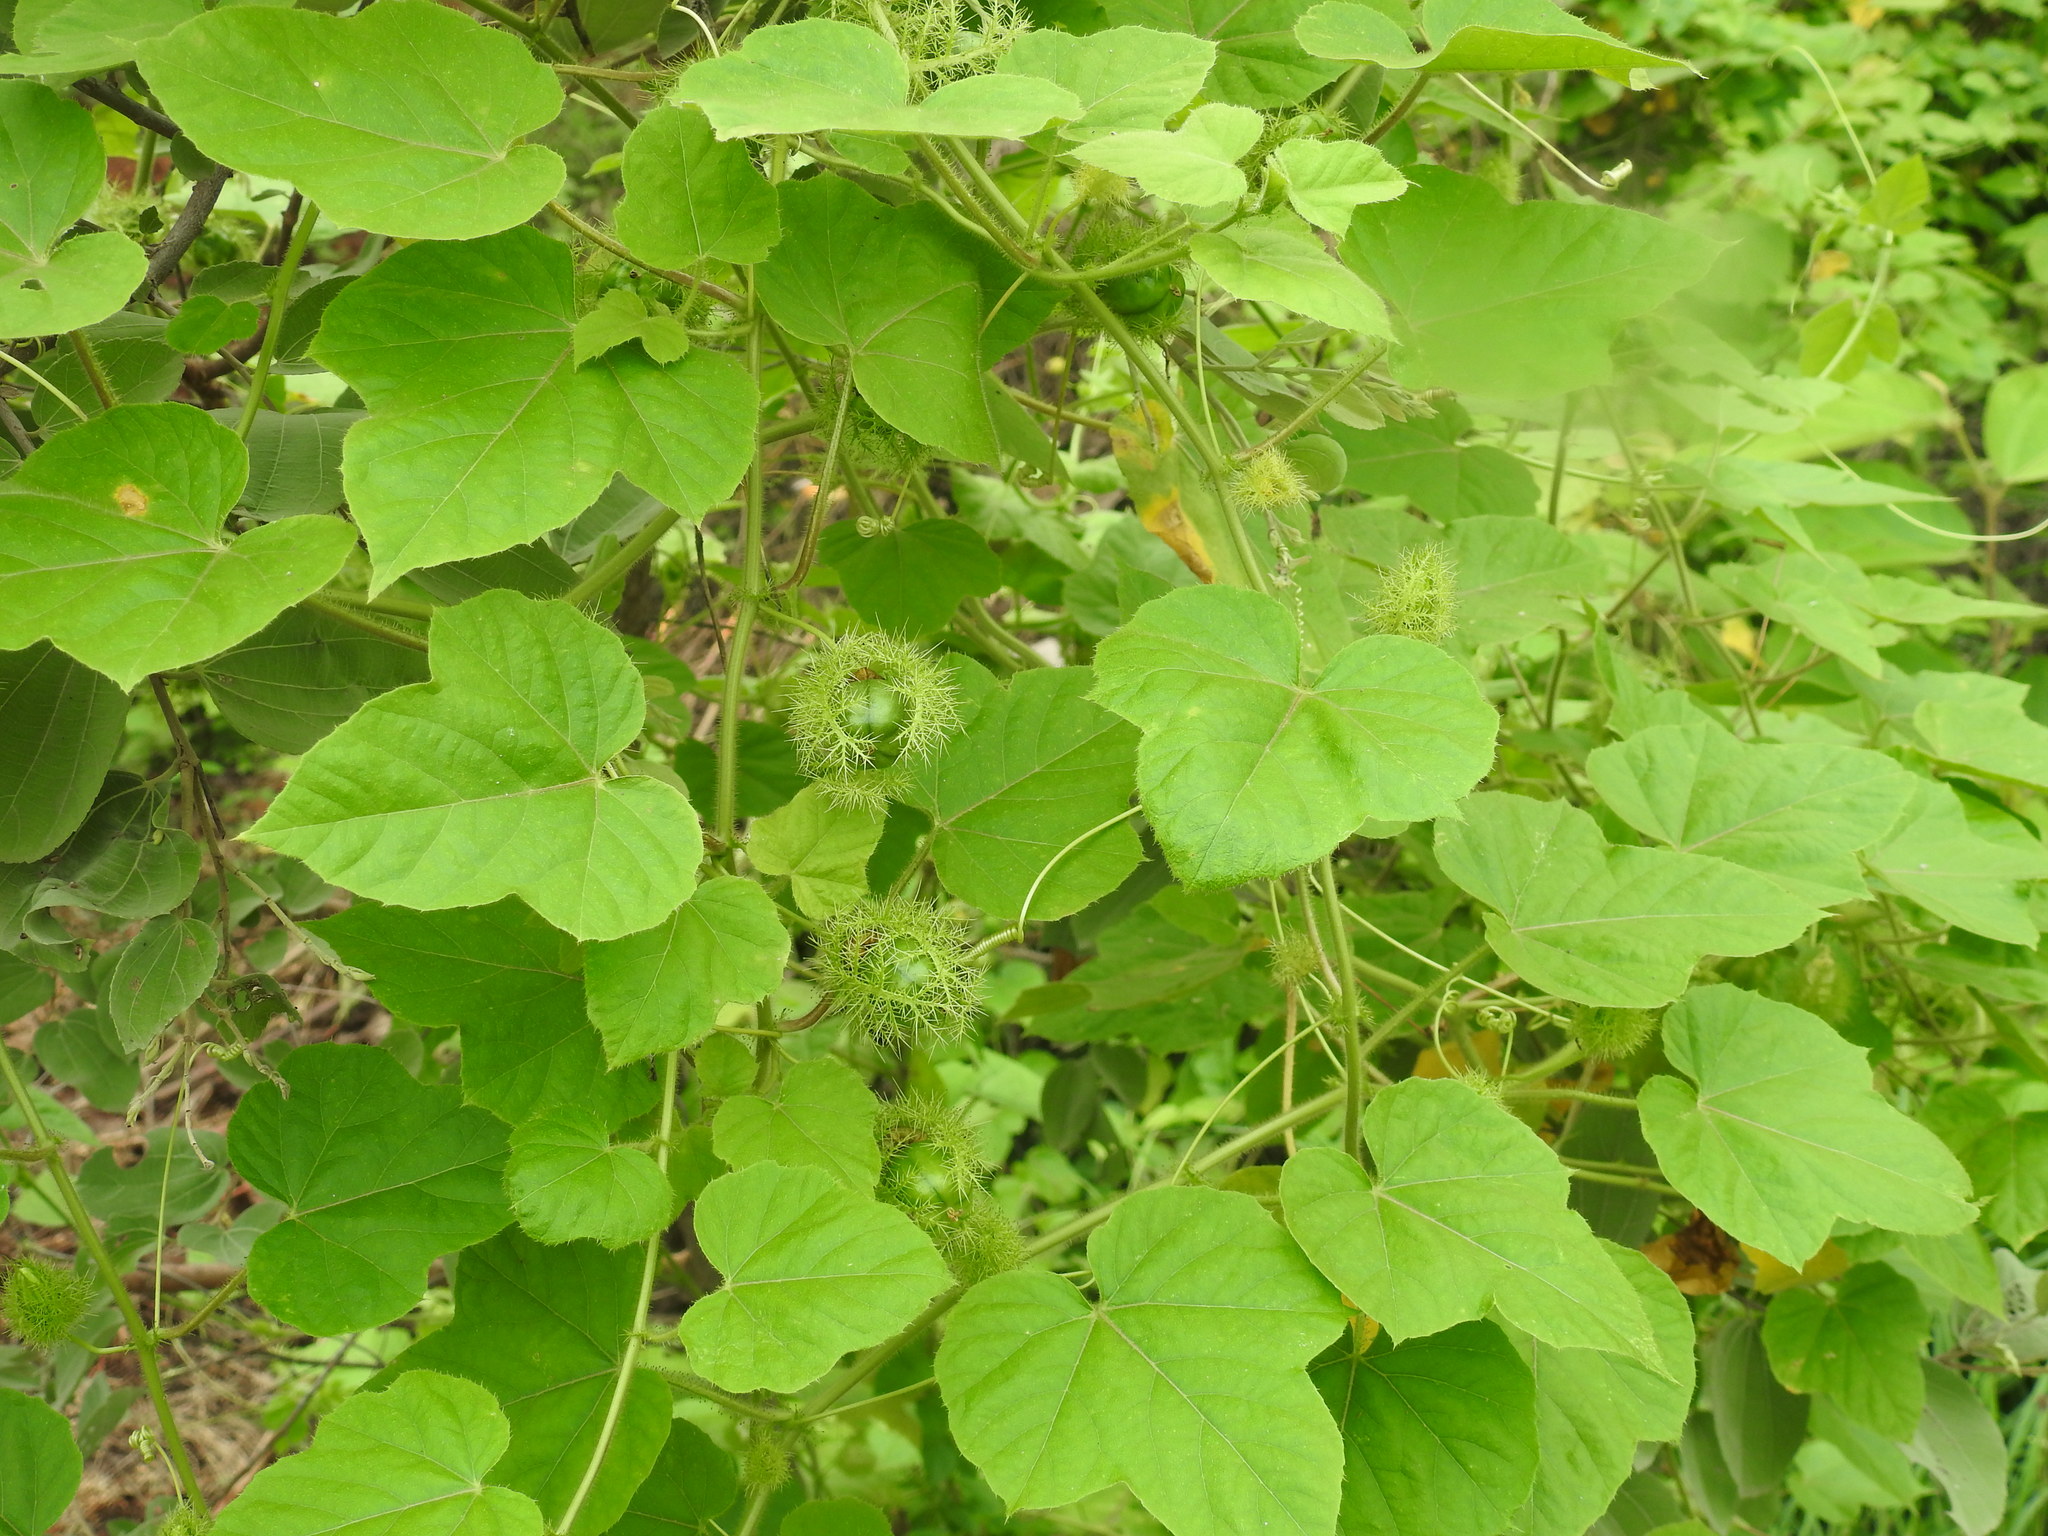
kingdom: Plantae
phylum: Tracheophyta
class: Magnoliopsida
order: Malpighiales
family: Passifloraceae
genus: Passiflora
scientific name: Passiflora foetida
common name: Fetid passionflower
